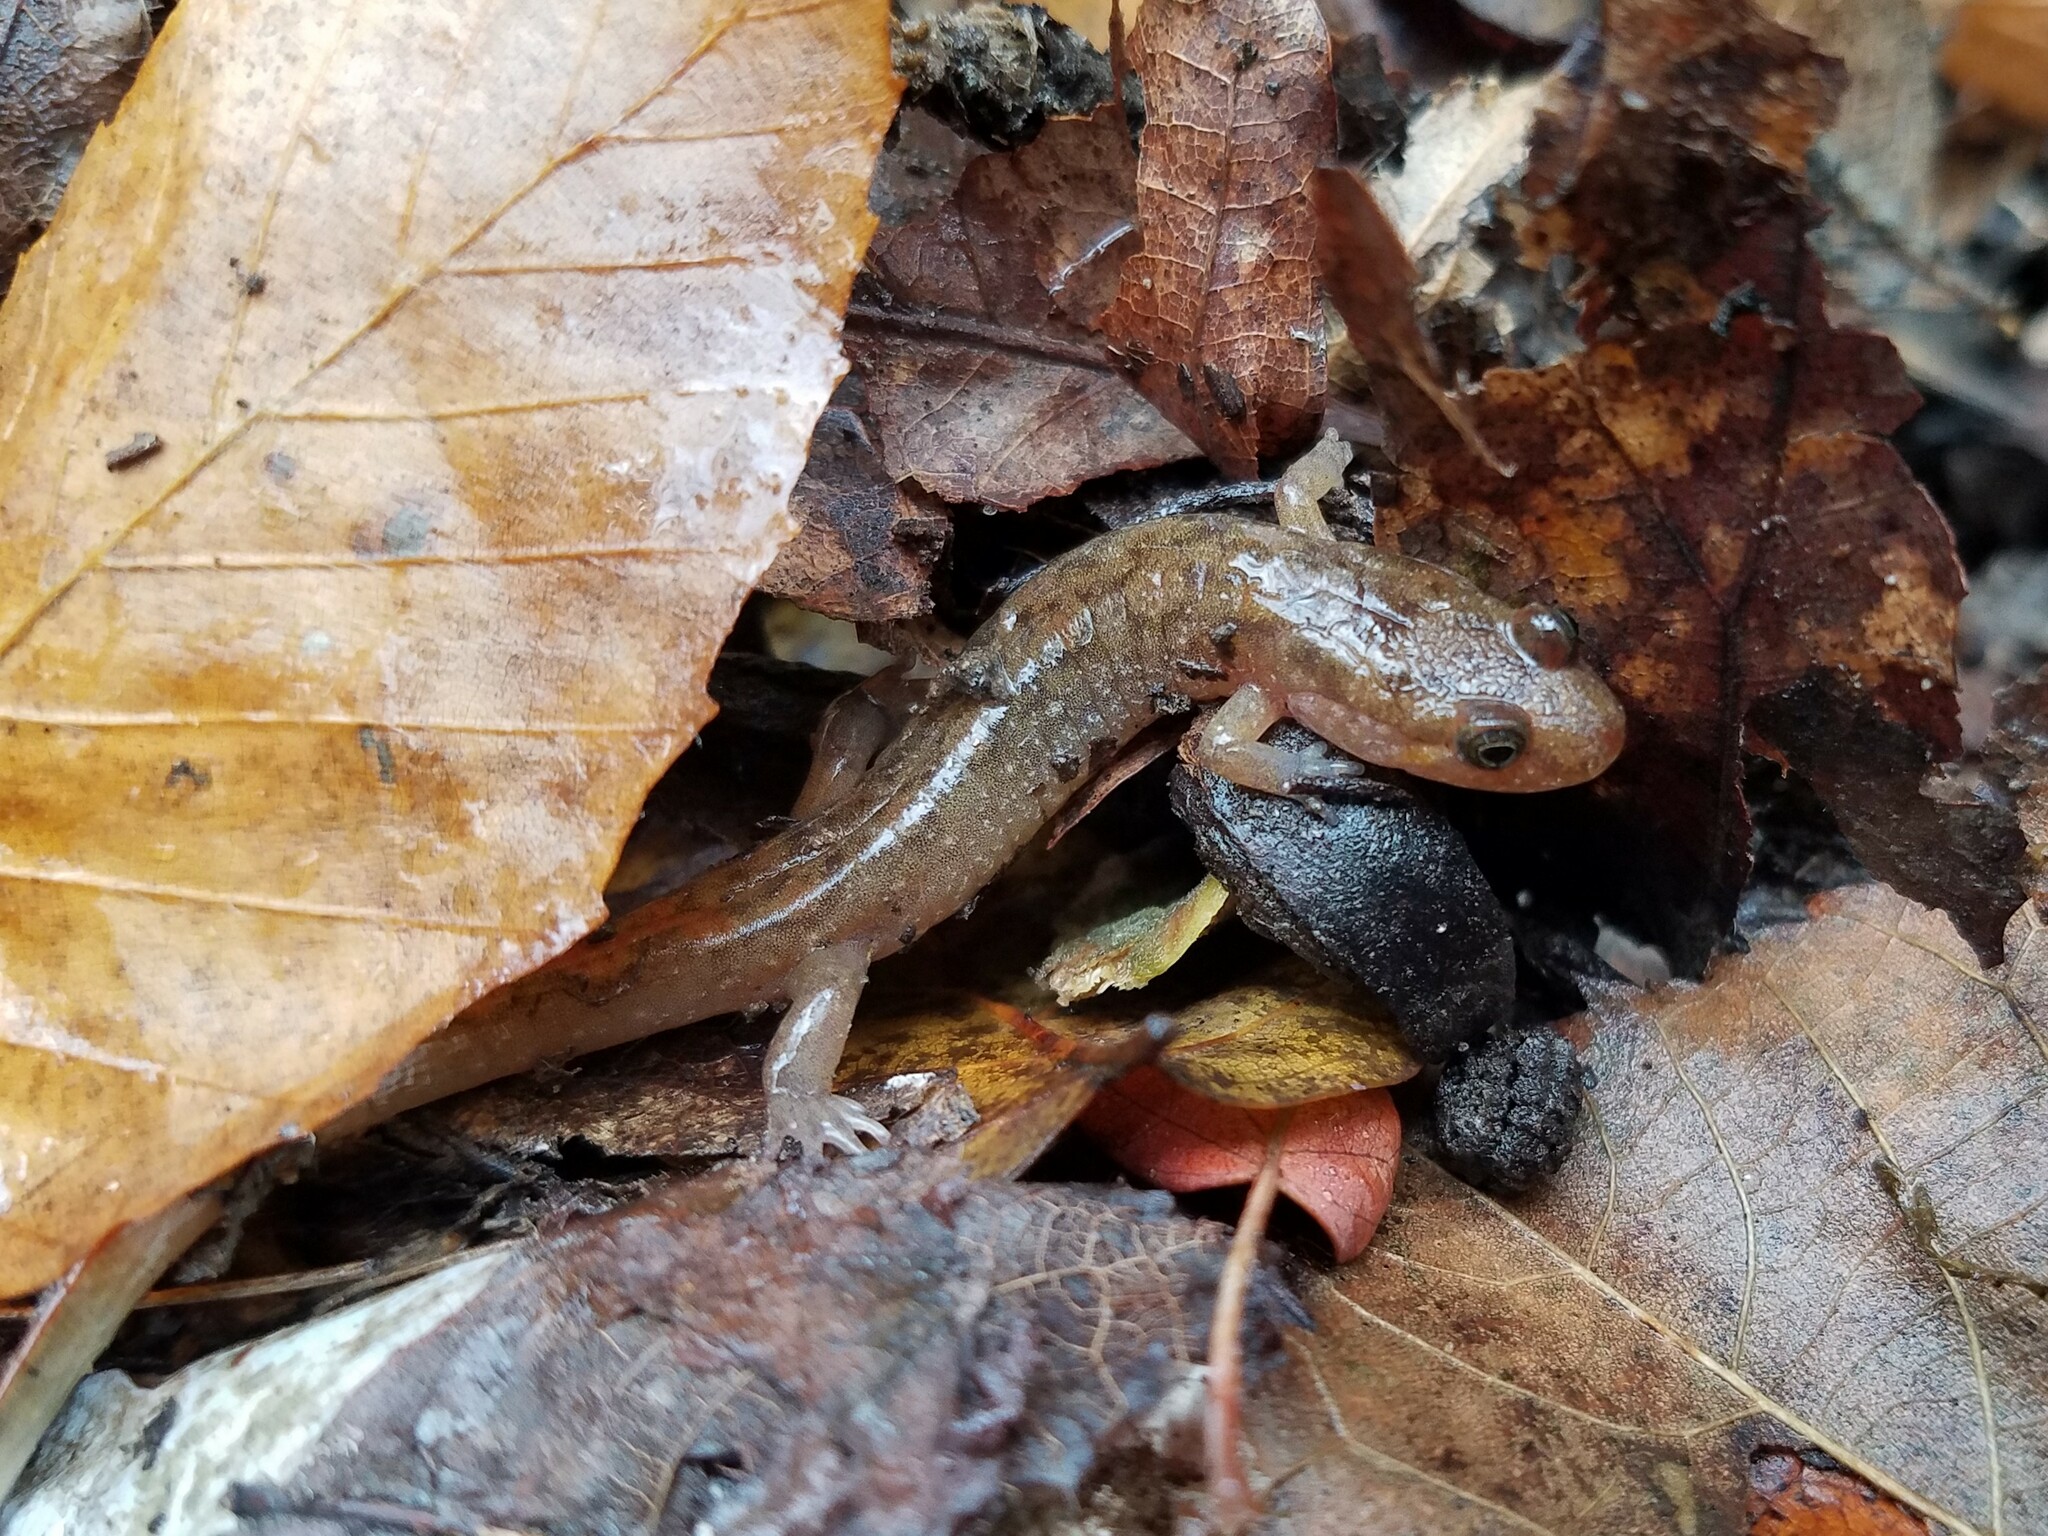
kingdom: Animalia
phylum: Chordata
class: Amphibia
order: Caudata
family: Plethodontidae
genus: Desmognathus
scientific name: Desmognathus monticola
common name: Seal salamander
